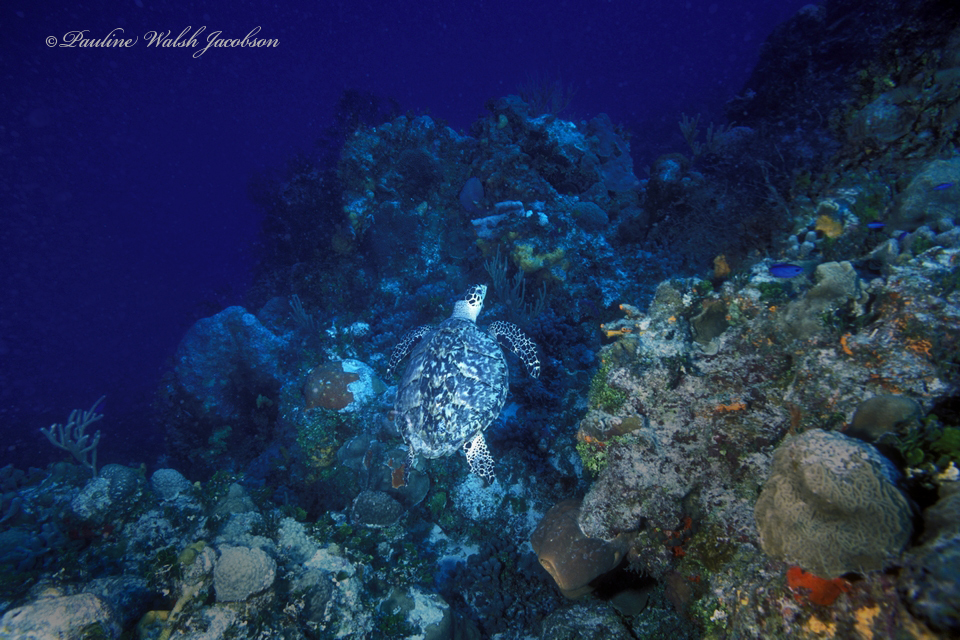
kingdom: Animalia
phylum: Chordata
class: Testudines
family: Cheloniidae
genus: Eretmochelys
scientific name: Eretmochelys imbricata
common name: Hawksbill turtle
